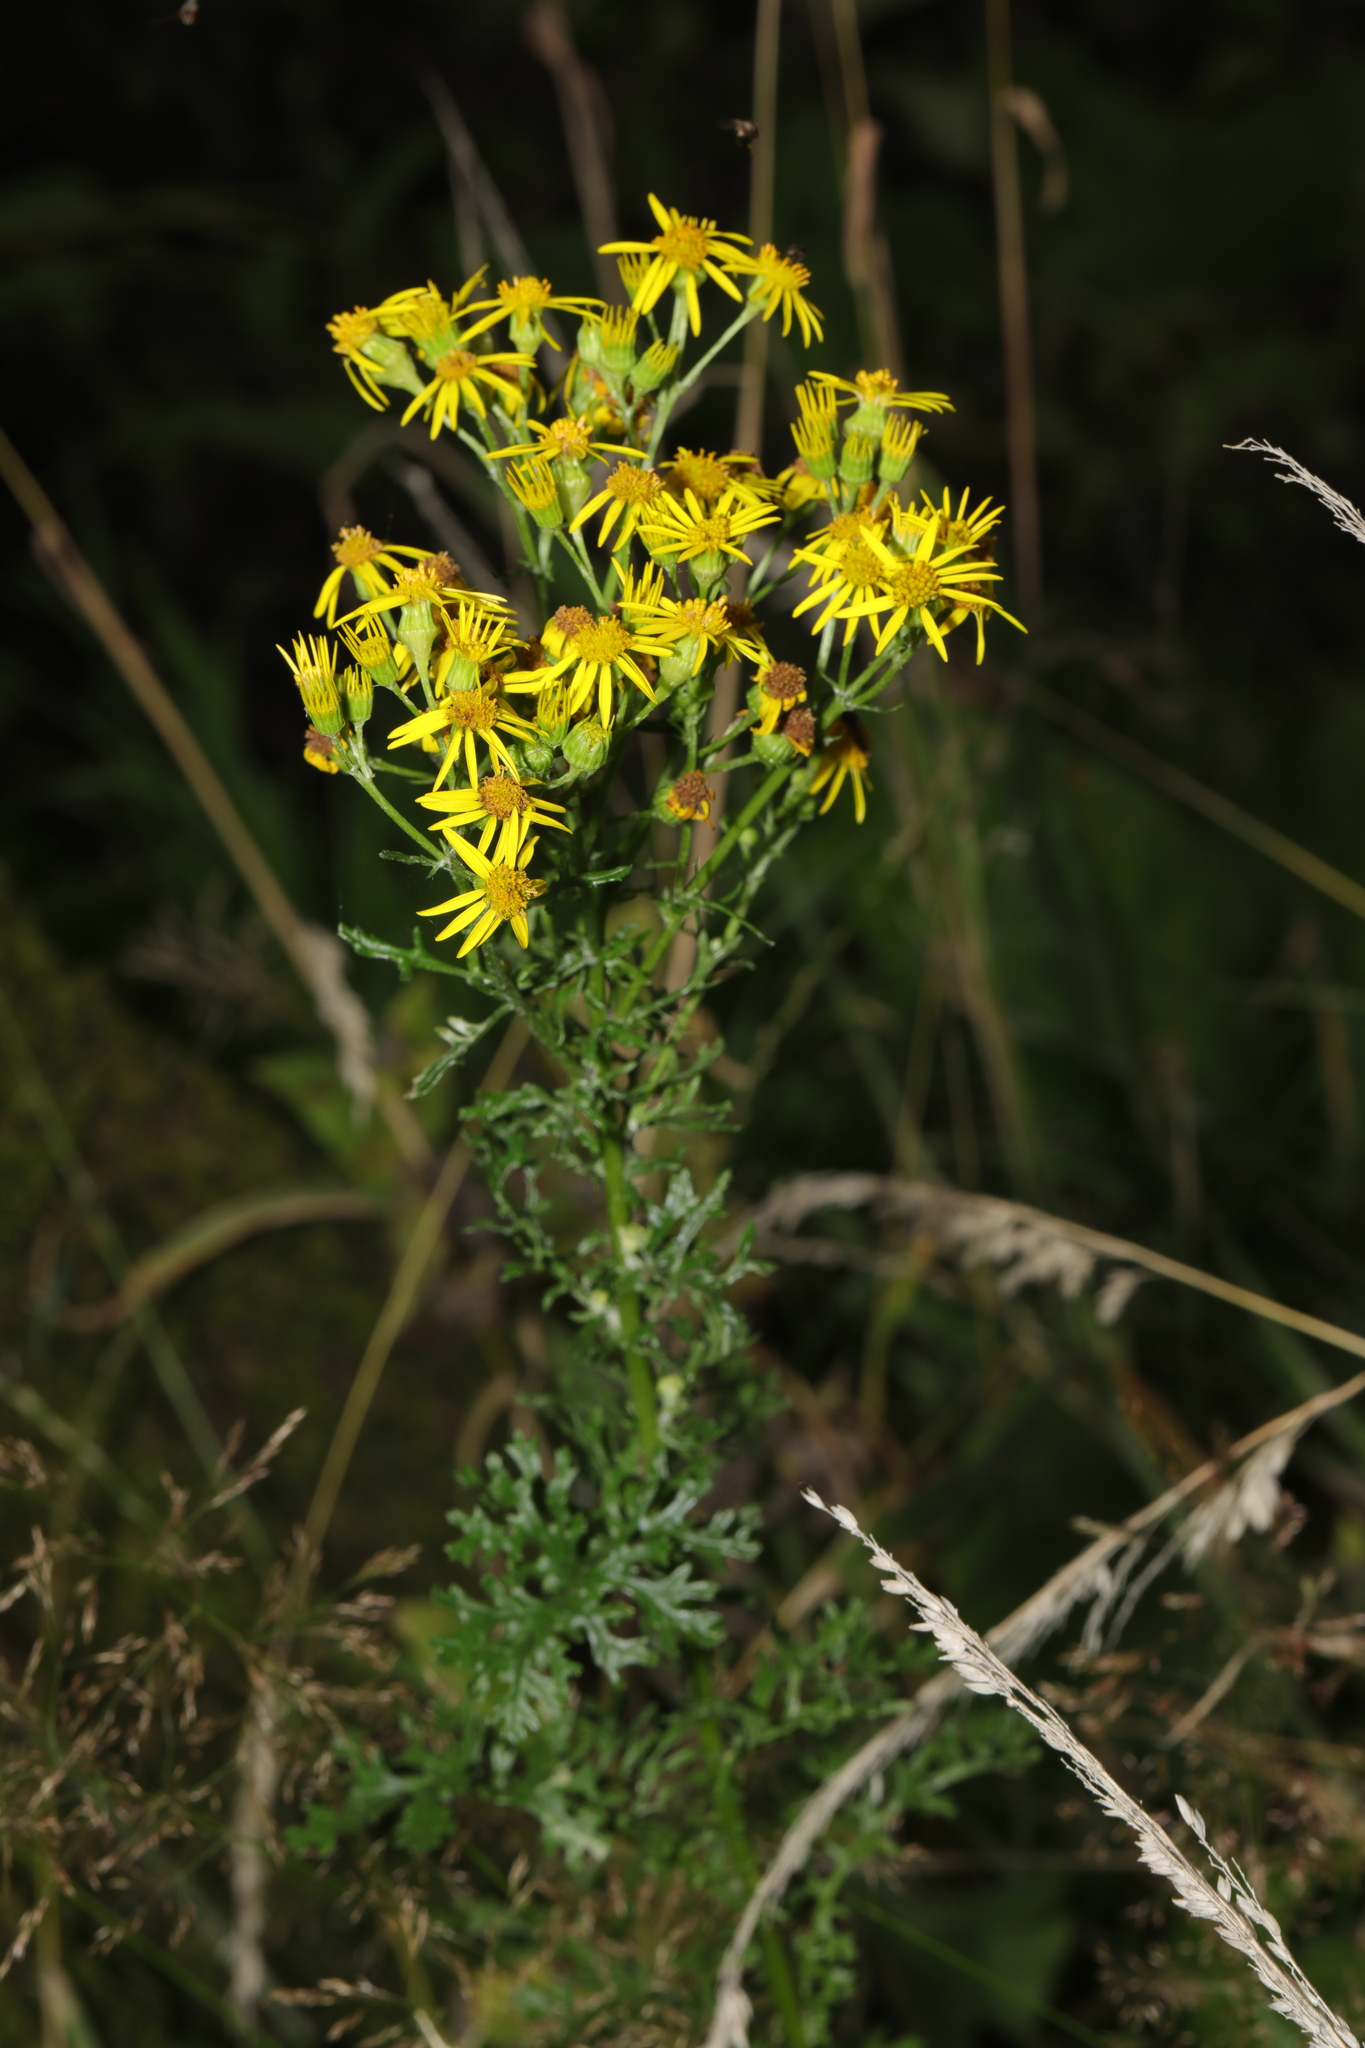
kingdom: Plantae
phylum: Tracheophyta
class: Magnoliopsida
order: Asterales
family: Asteraceae
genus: Jacobaea
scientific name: Jacobaea vulgaris
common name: Stinking willie
